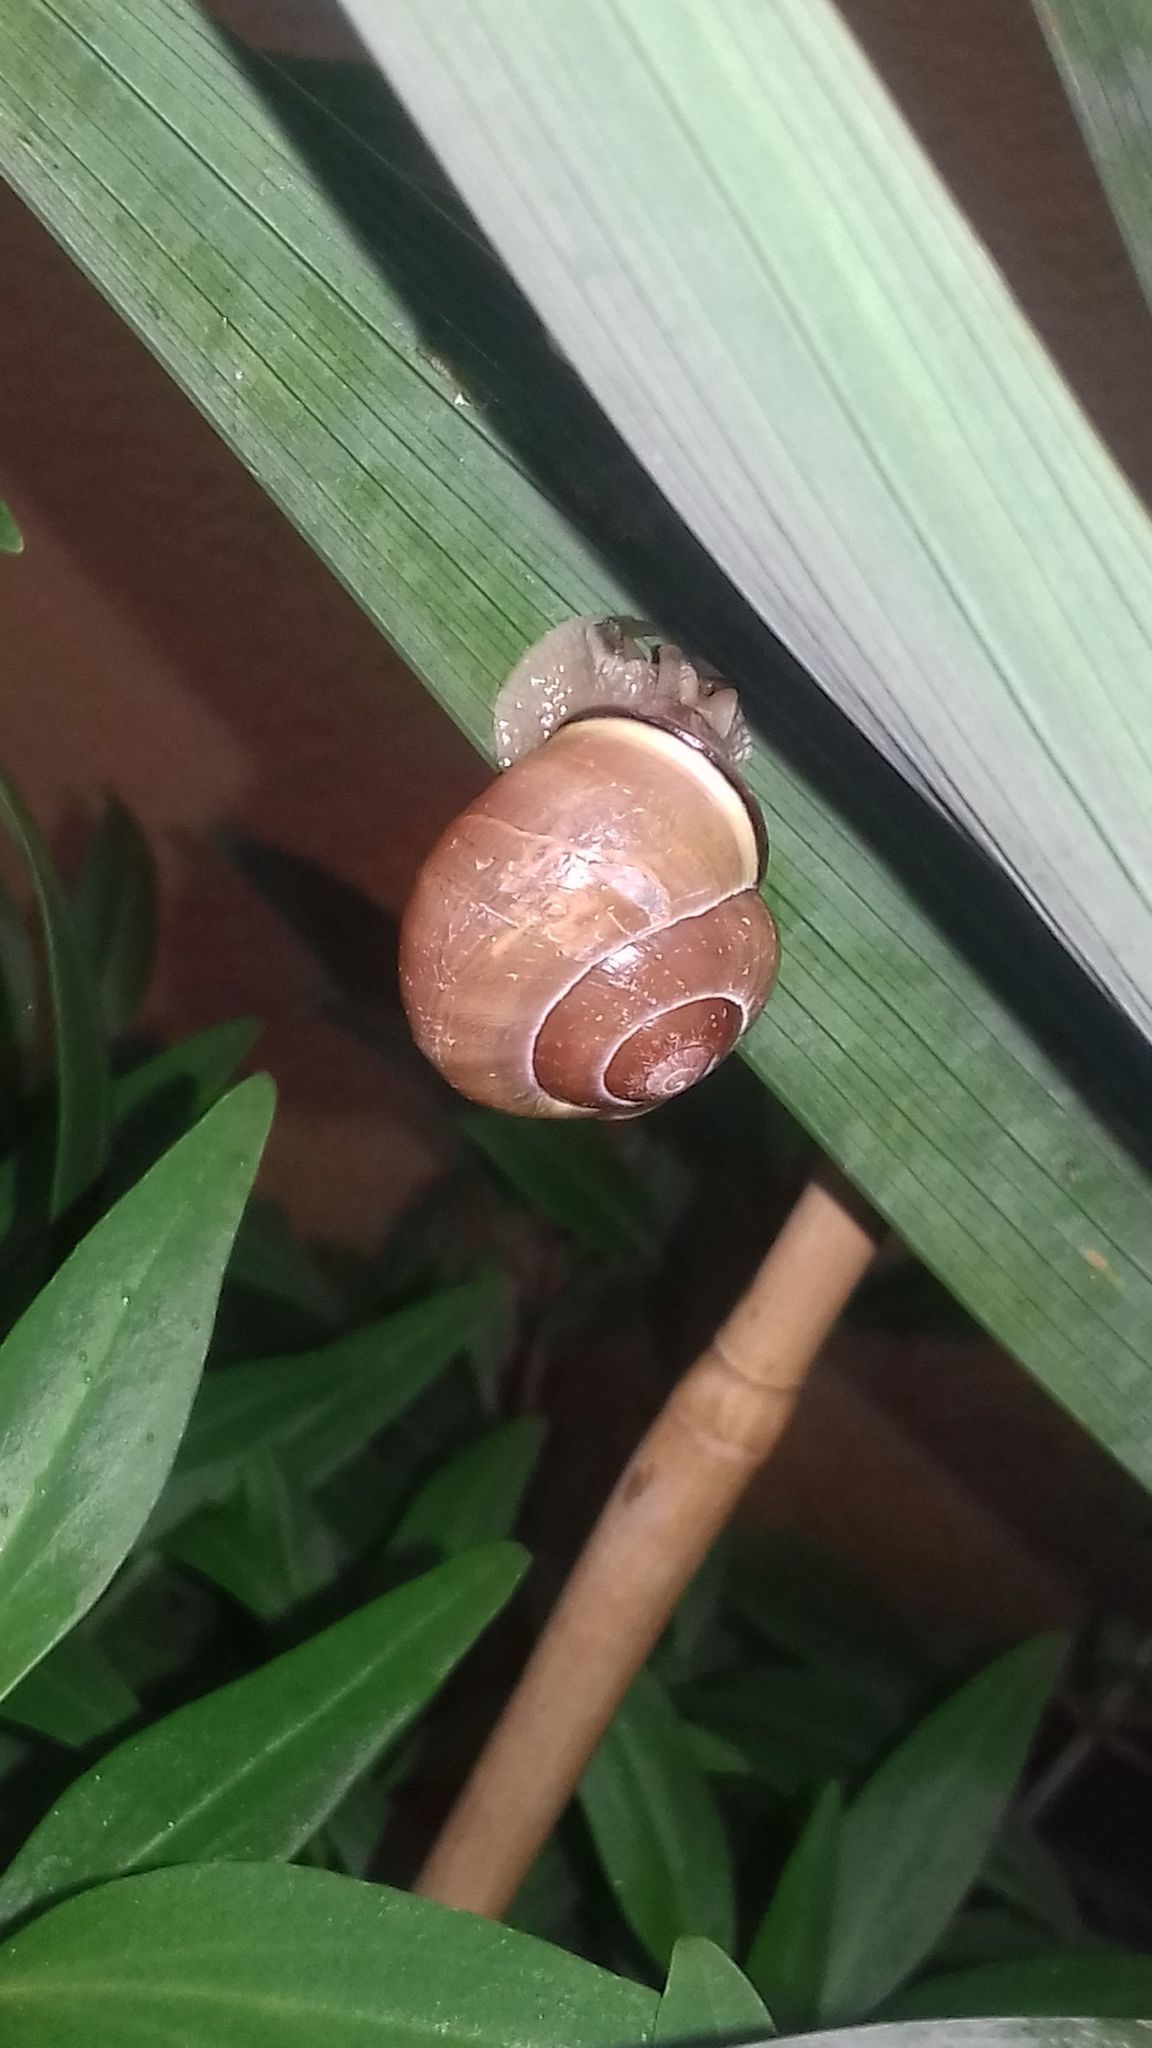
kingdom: Animalia
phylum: Mollusca
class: Gastropoda
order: Stylommatophora
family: Helicidae
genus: Cepaea
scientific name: Cepaea nemoralis
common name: Grovesnail
